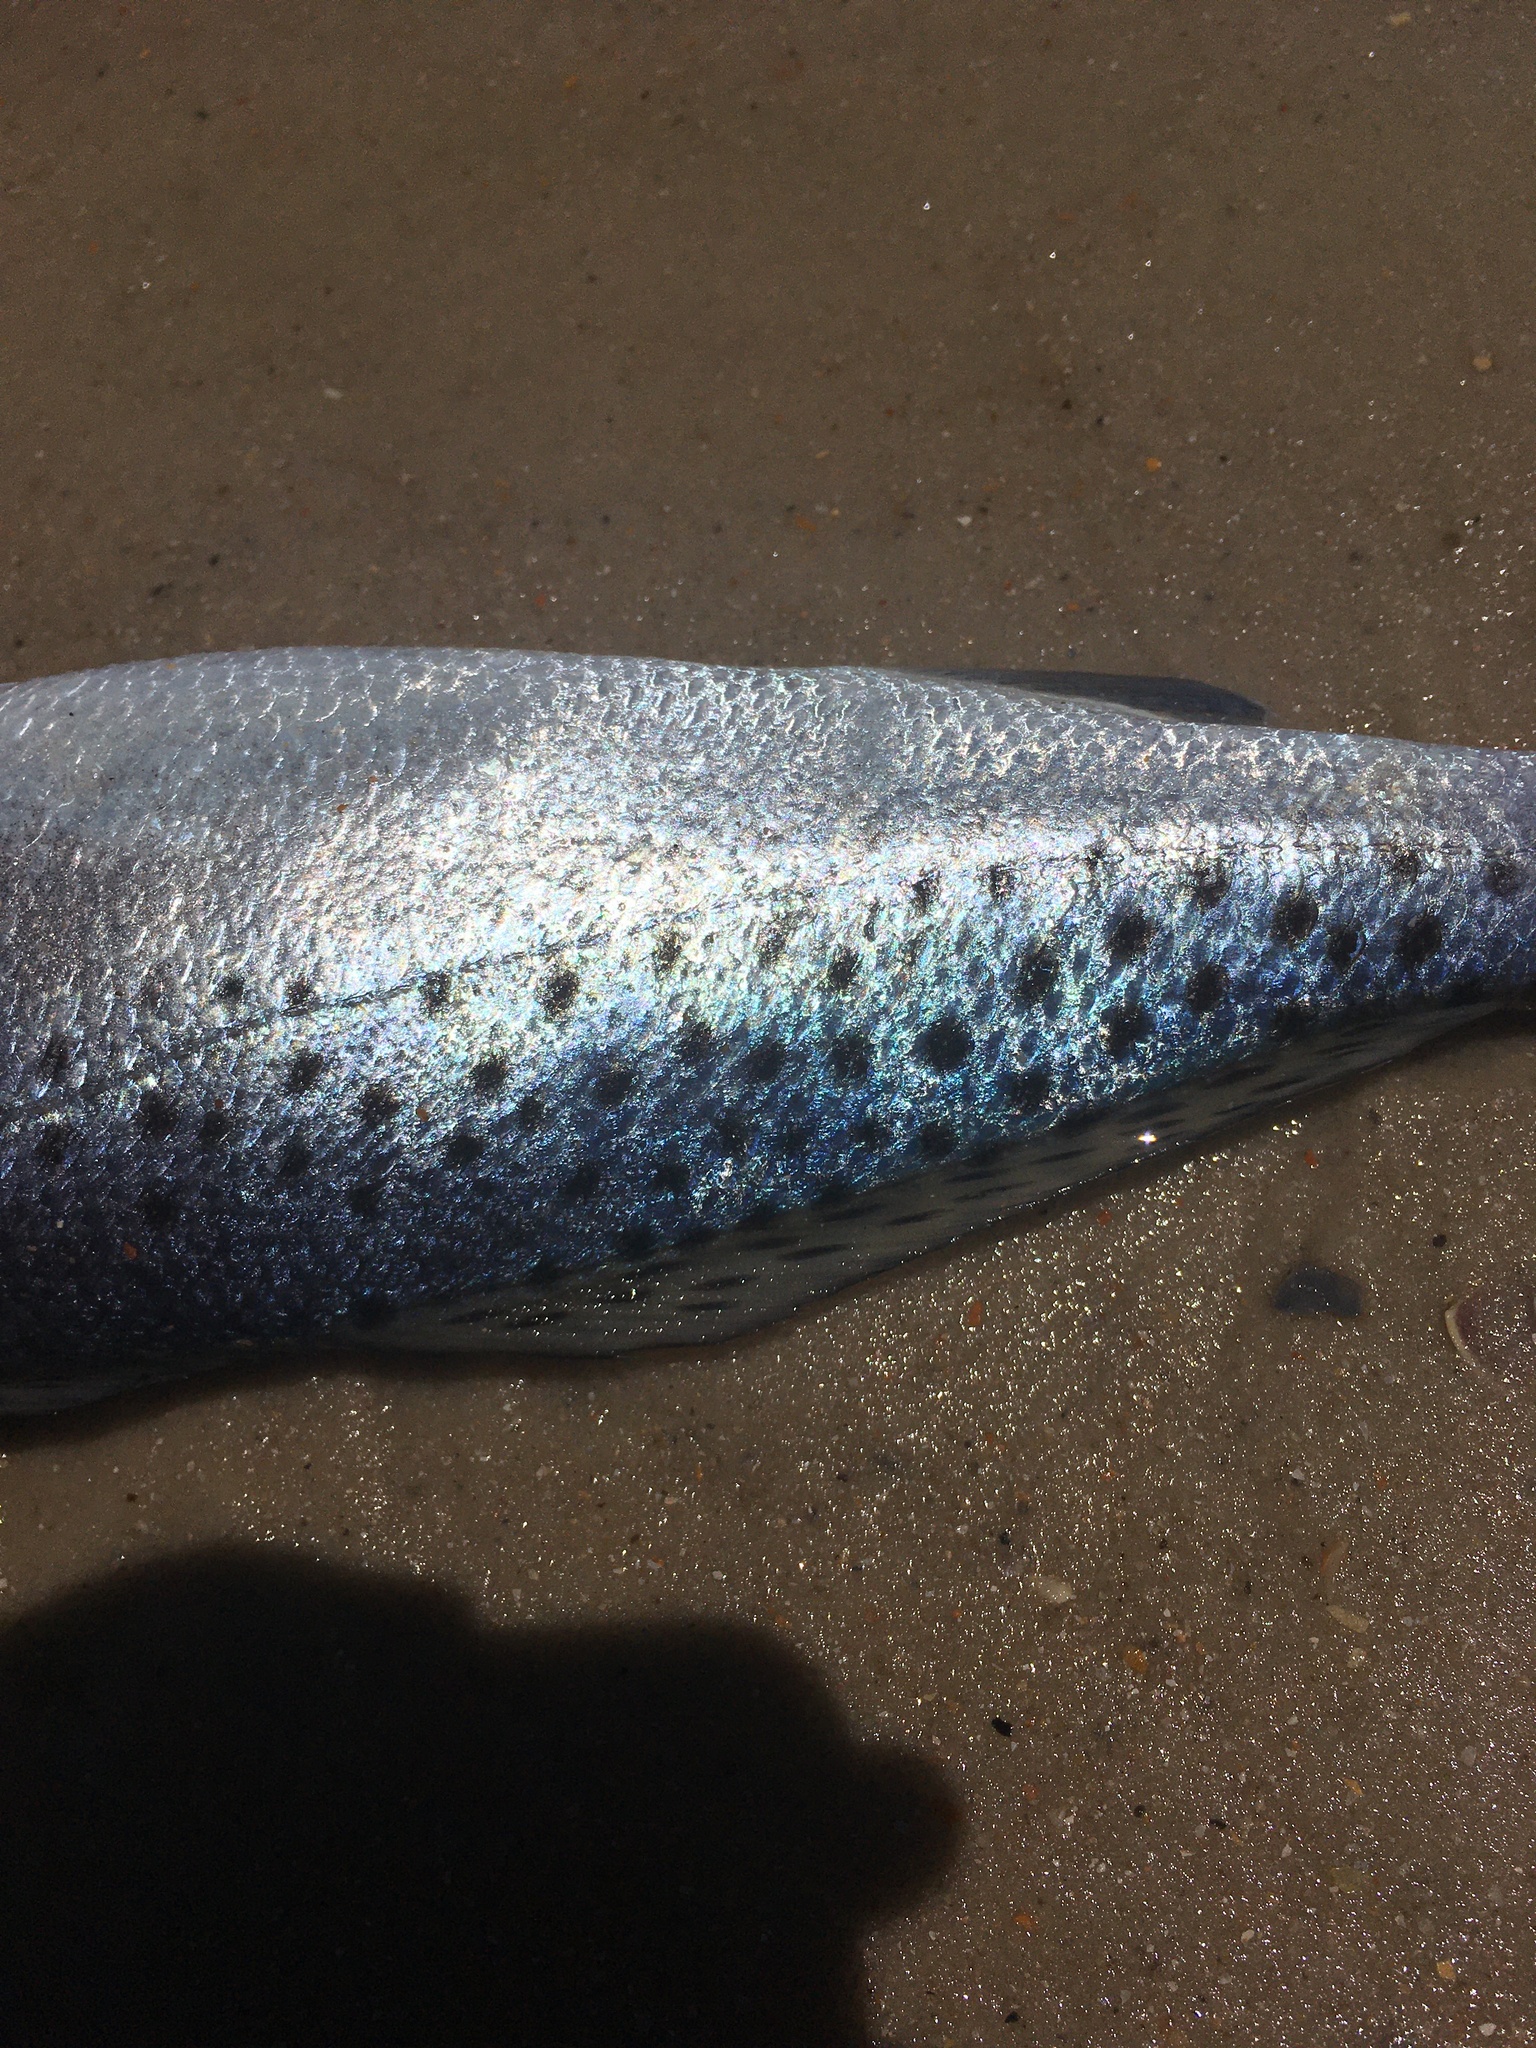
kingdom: Animalia
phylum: Chordata
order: Perciformes
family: Sciaenidae
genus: Cynoscion
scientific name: Cynoscion nebulosus
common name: Spotted seatrout
